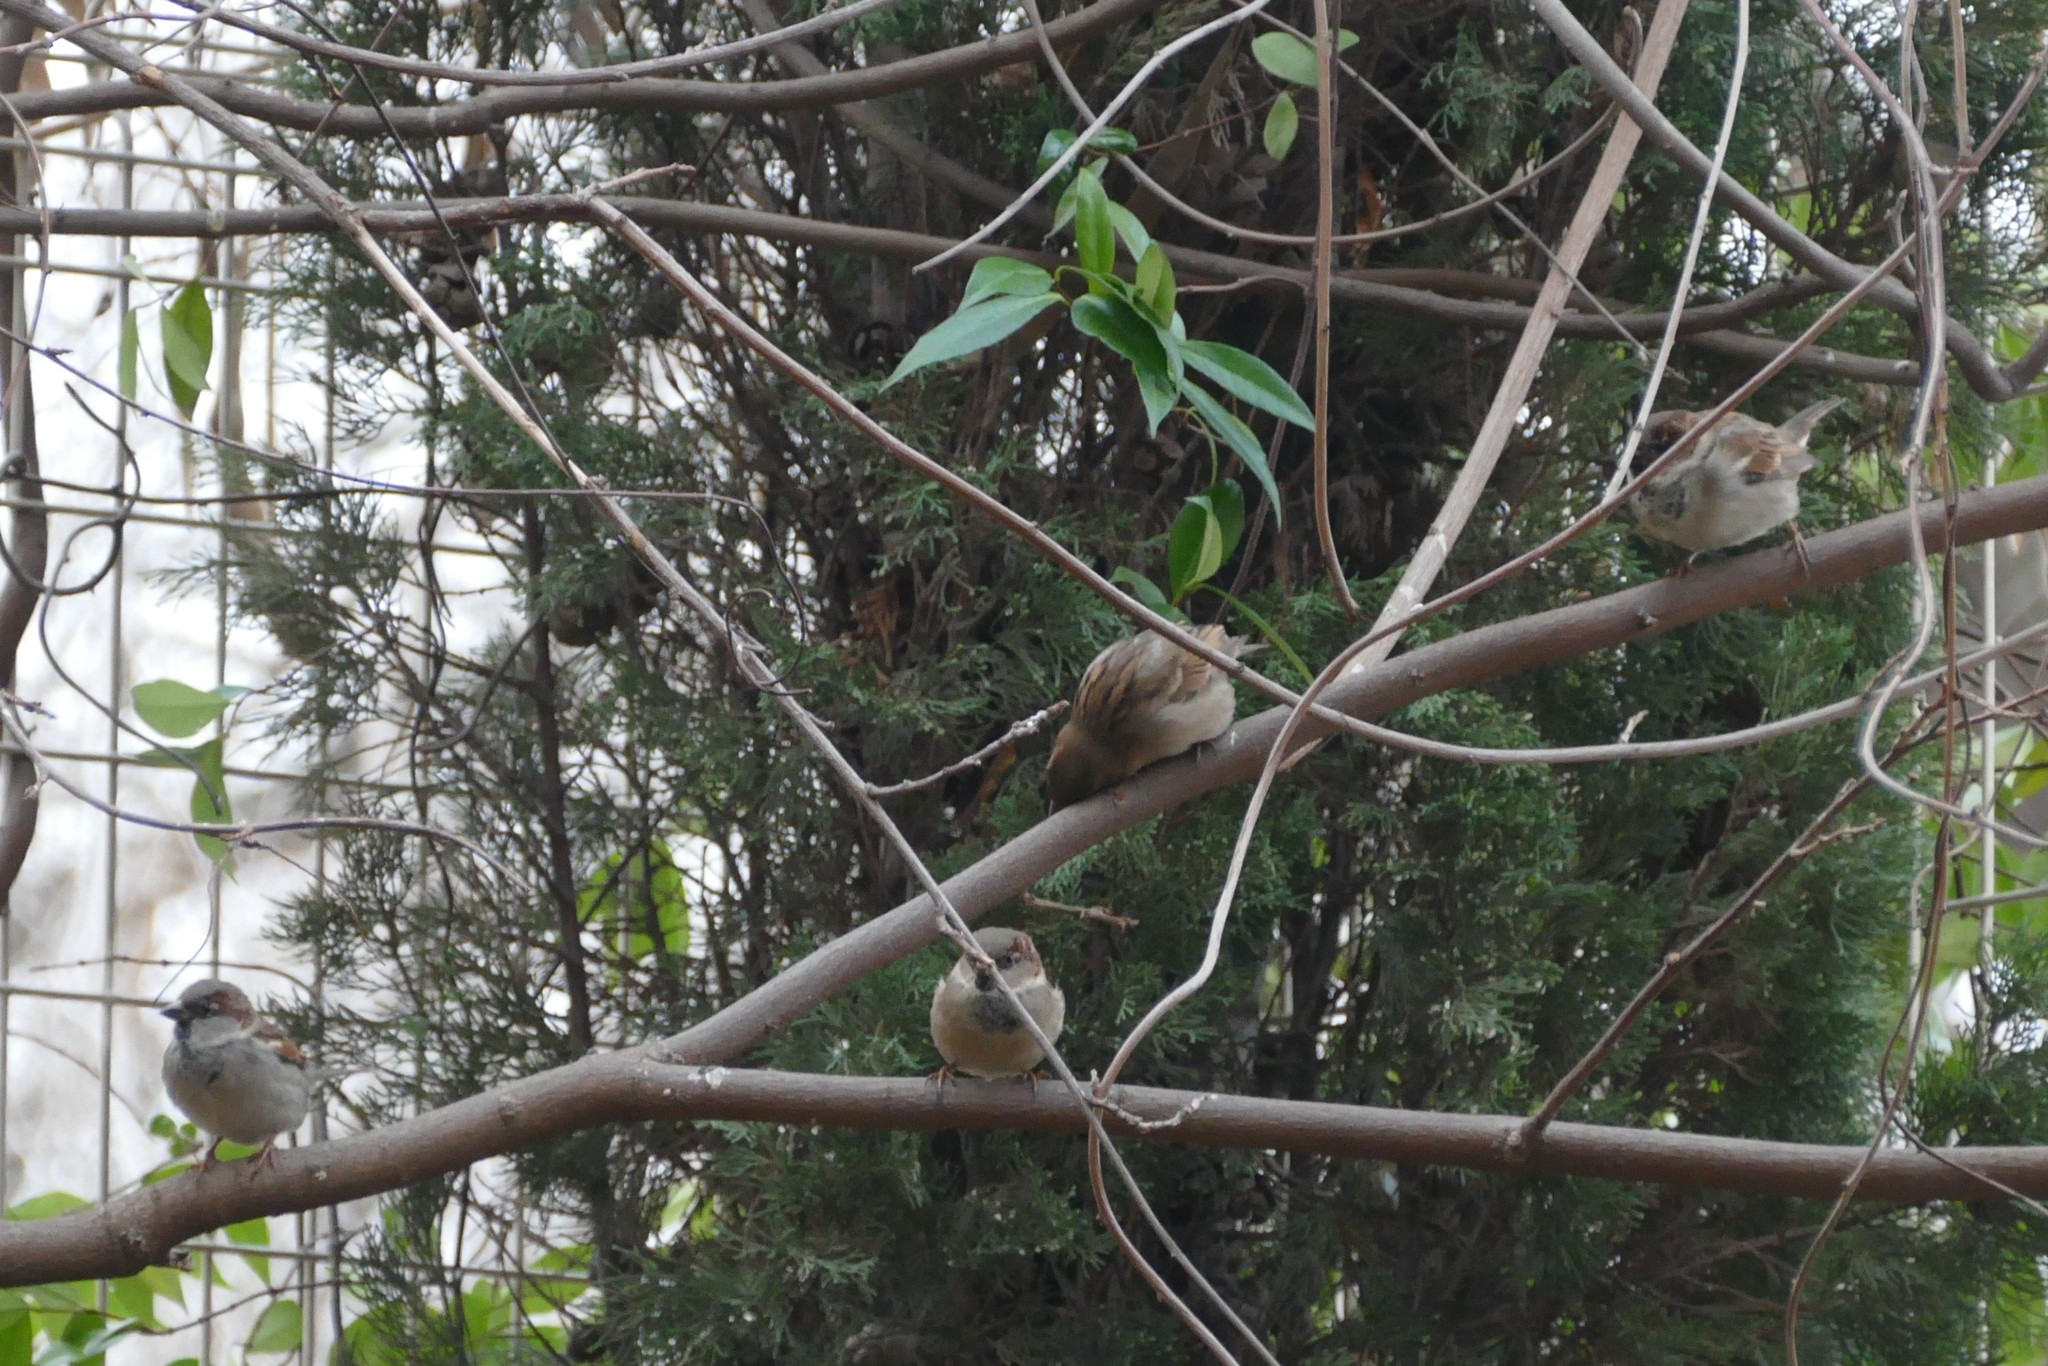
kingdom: Animalia
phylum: Chordata
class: Aves
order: Passeriformes
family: Passeridae
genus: Passer
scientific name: Passer domesticus
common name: House sparrow
